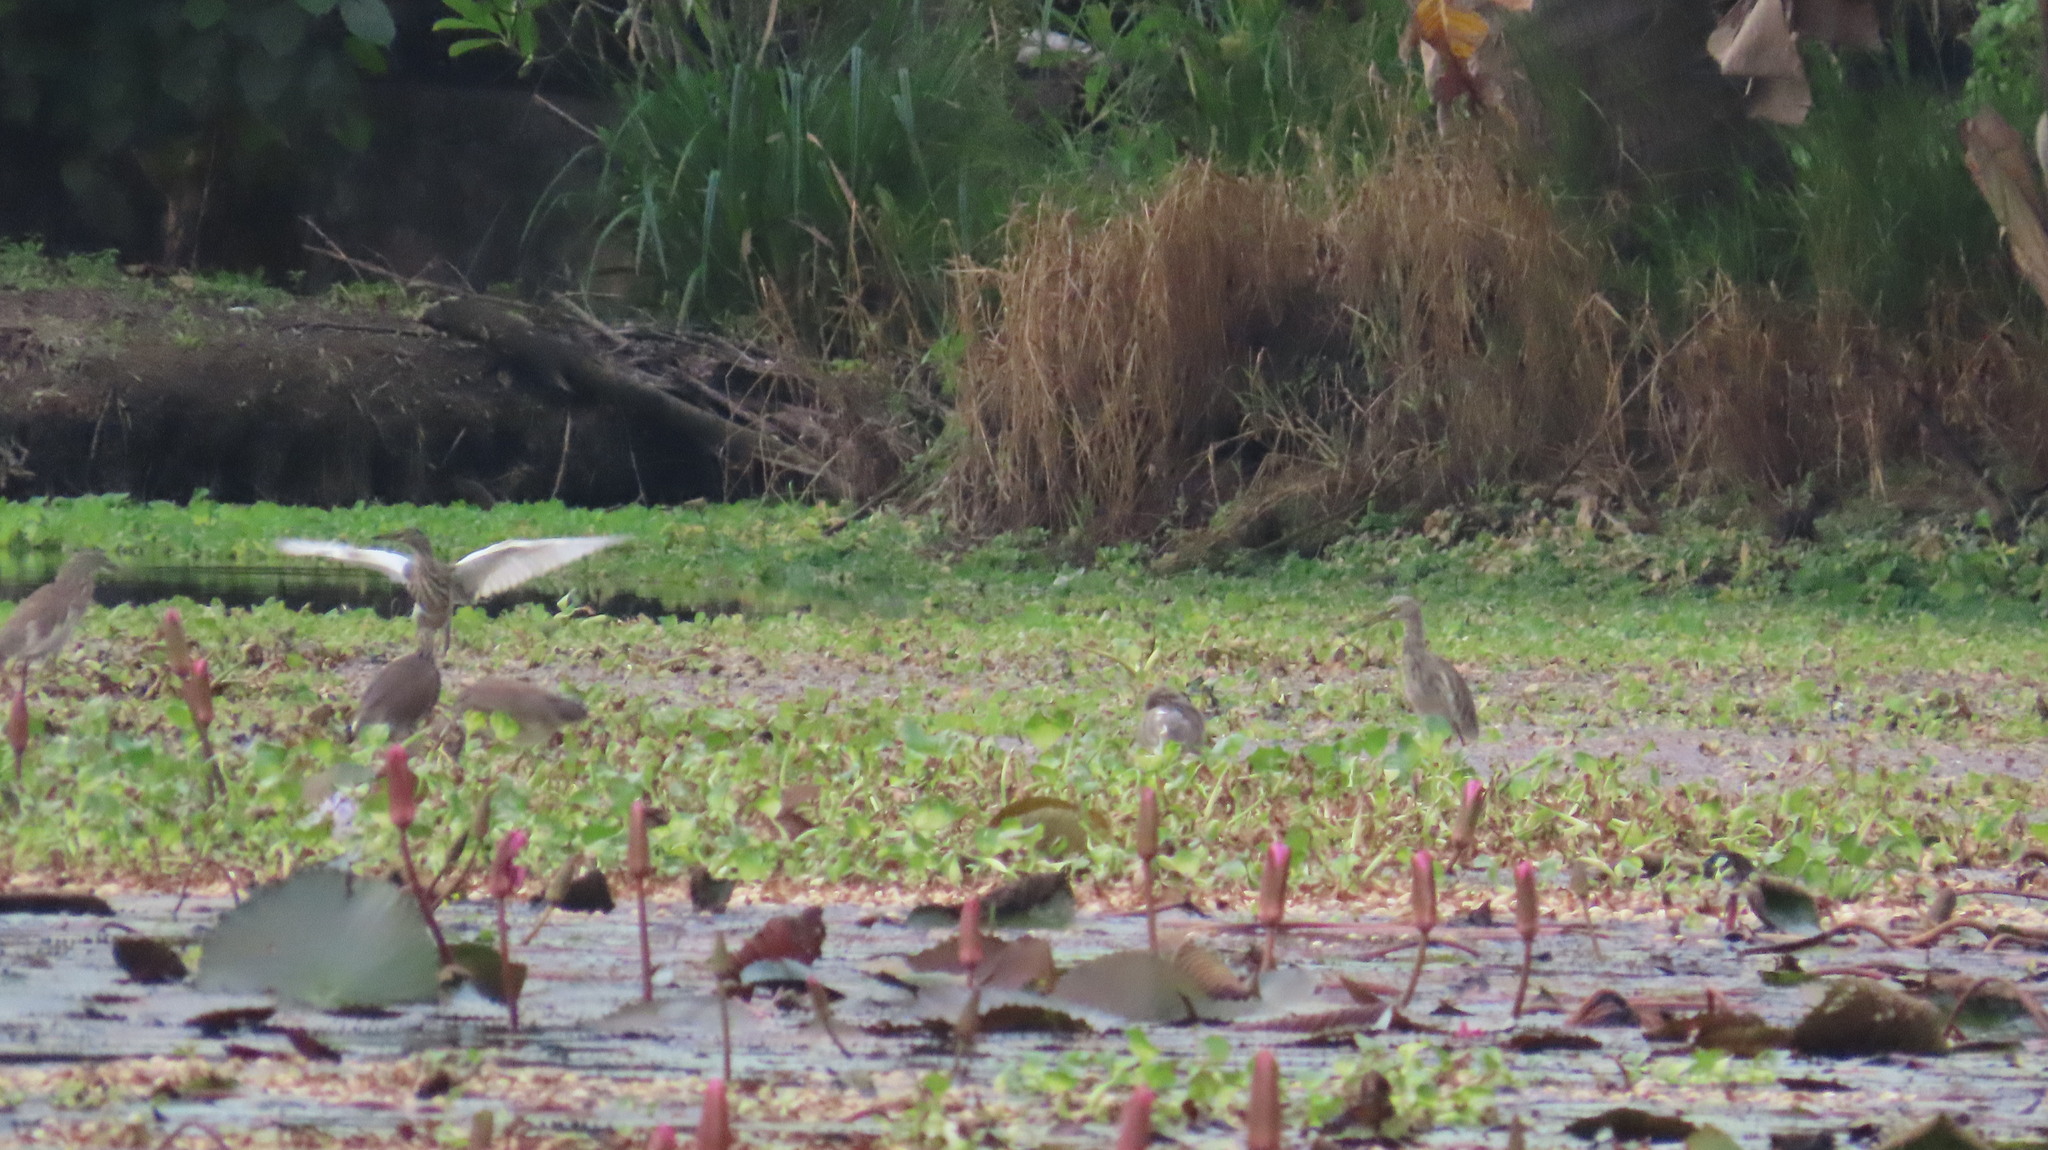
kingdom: Animalia
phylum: Chordata
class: Aves
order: Pelecaniformes
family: Ardeidae
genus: Ardeola
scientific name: Ardeola grayii
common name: Indian pond heron
